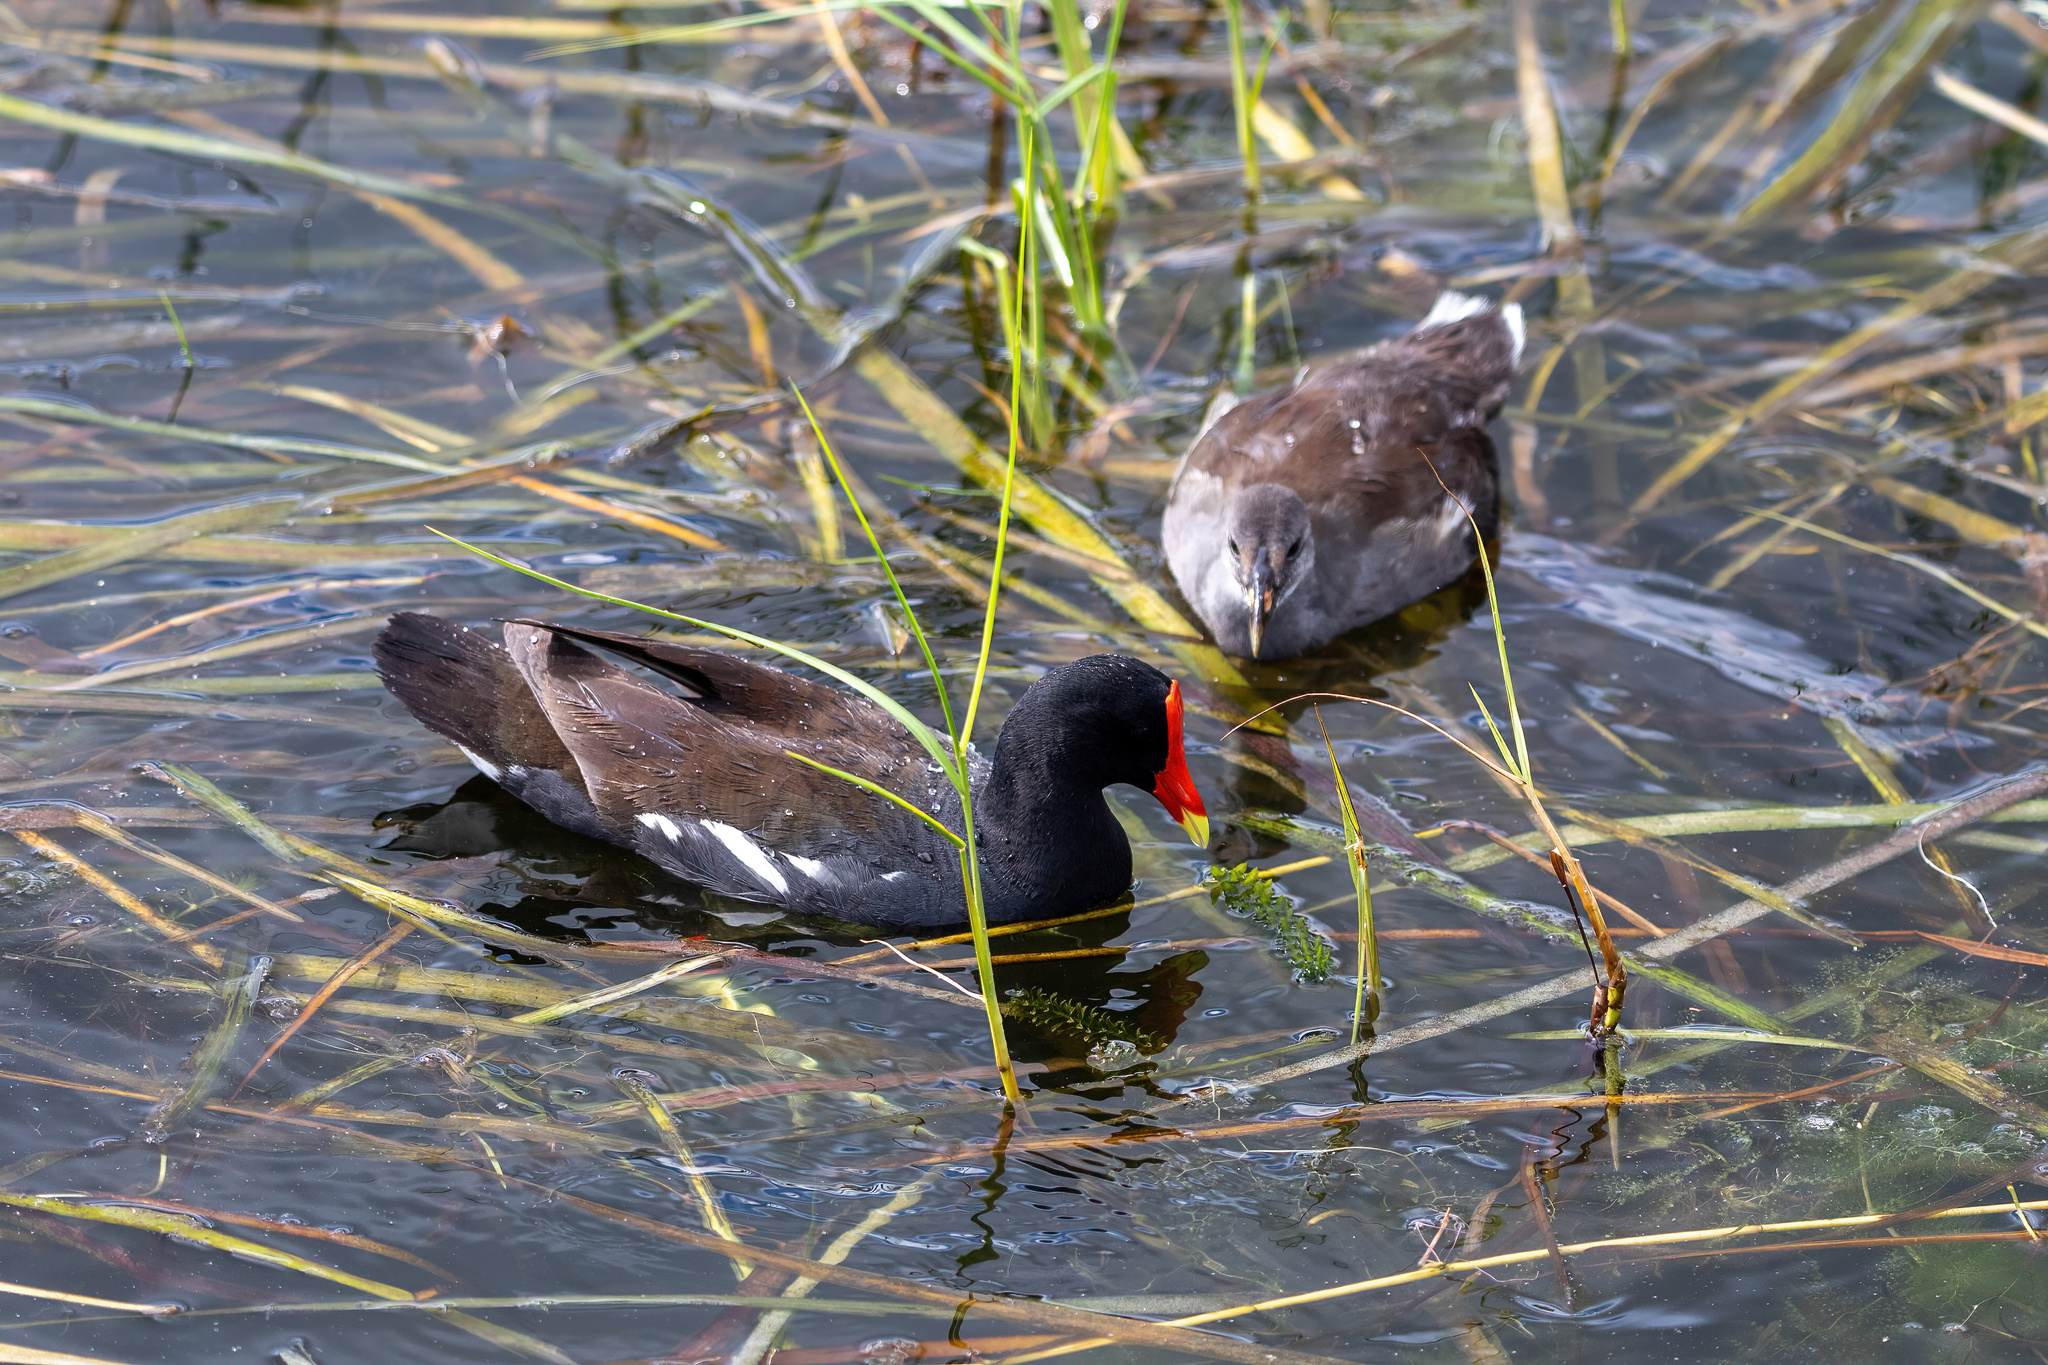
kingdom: Animalia
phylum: Chordata
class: Aves
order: Gruiformes
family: Rallidae
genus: Gallinula
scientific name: Gallinula chloropus
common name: Common moorhen
